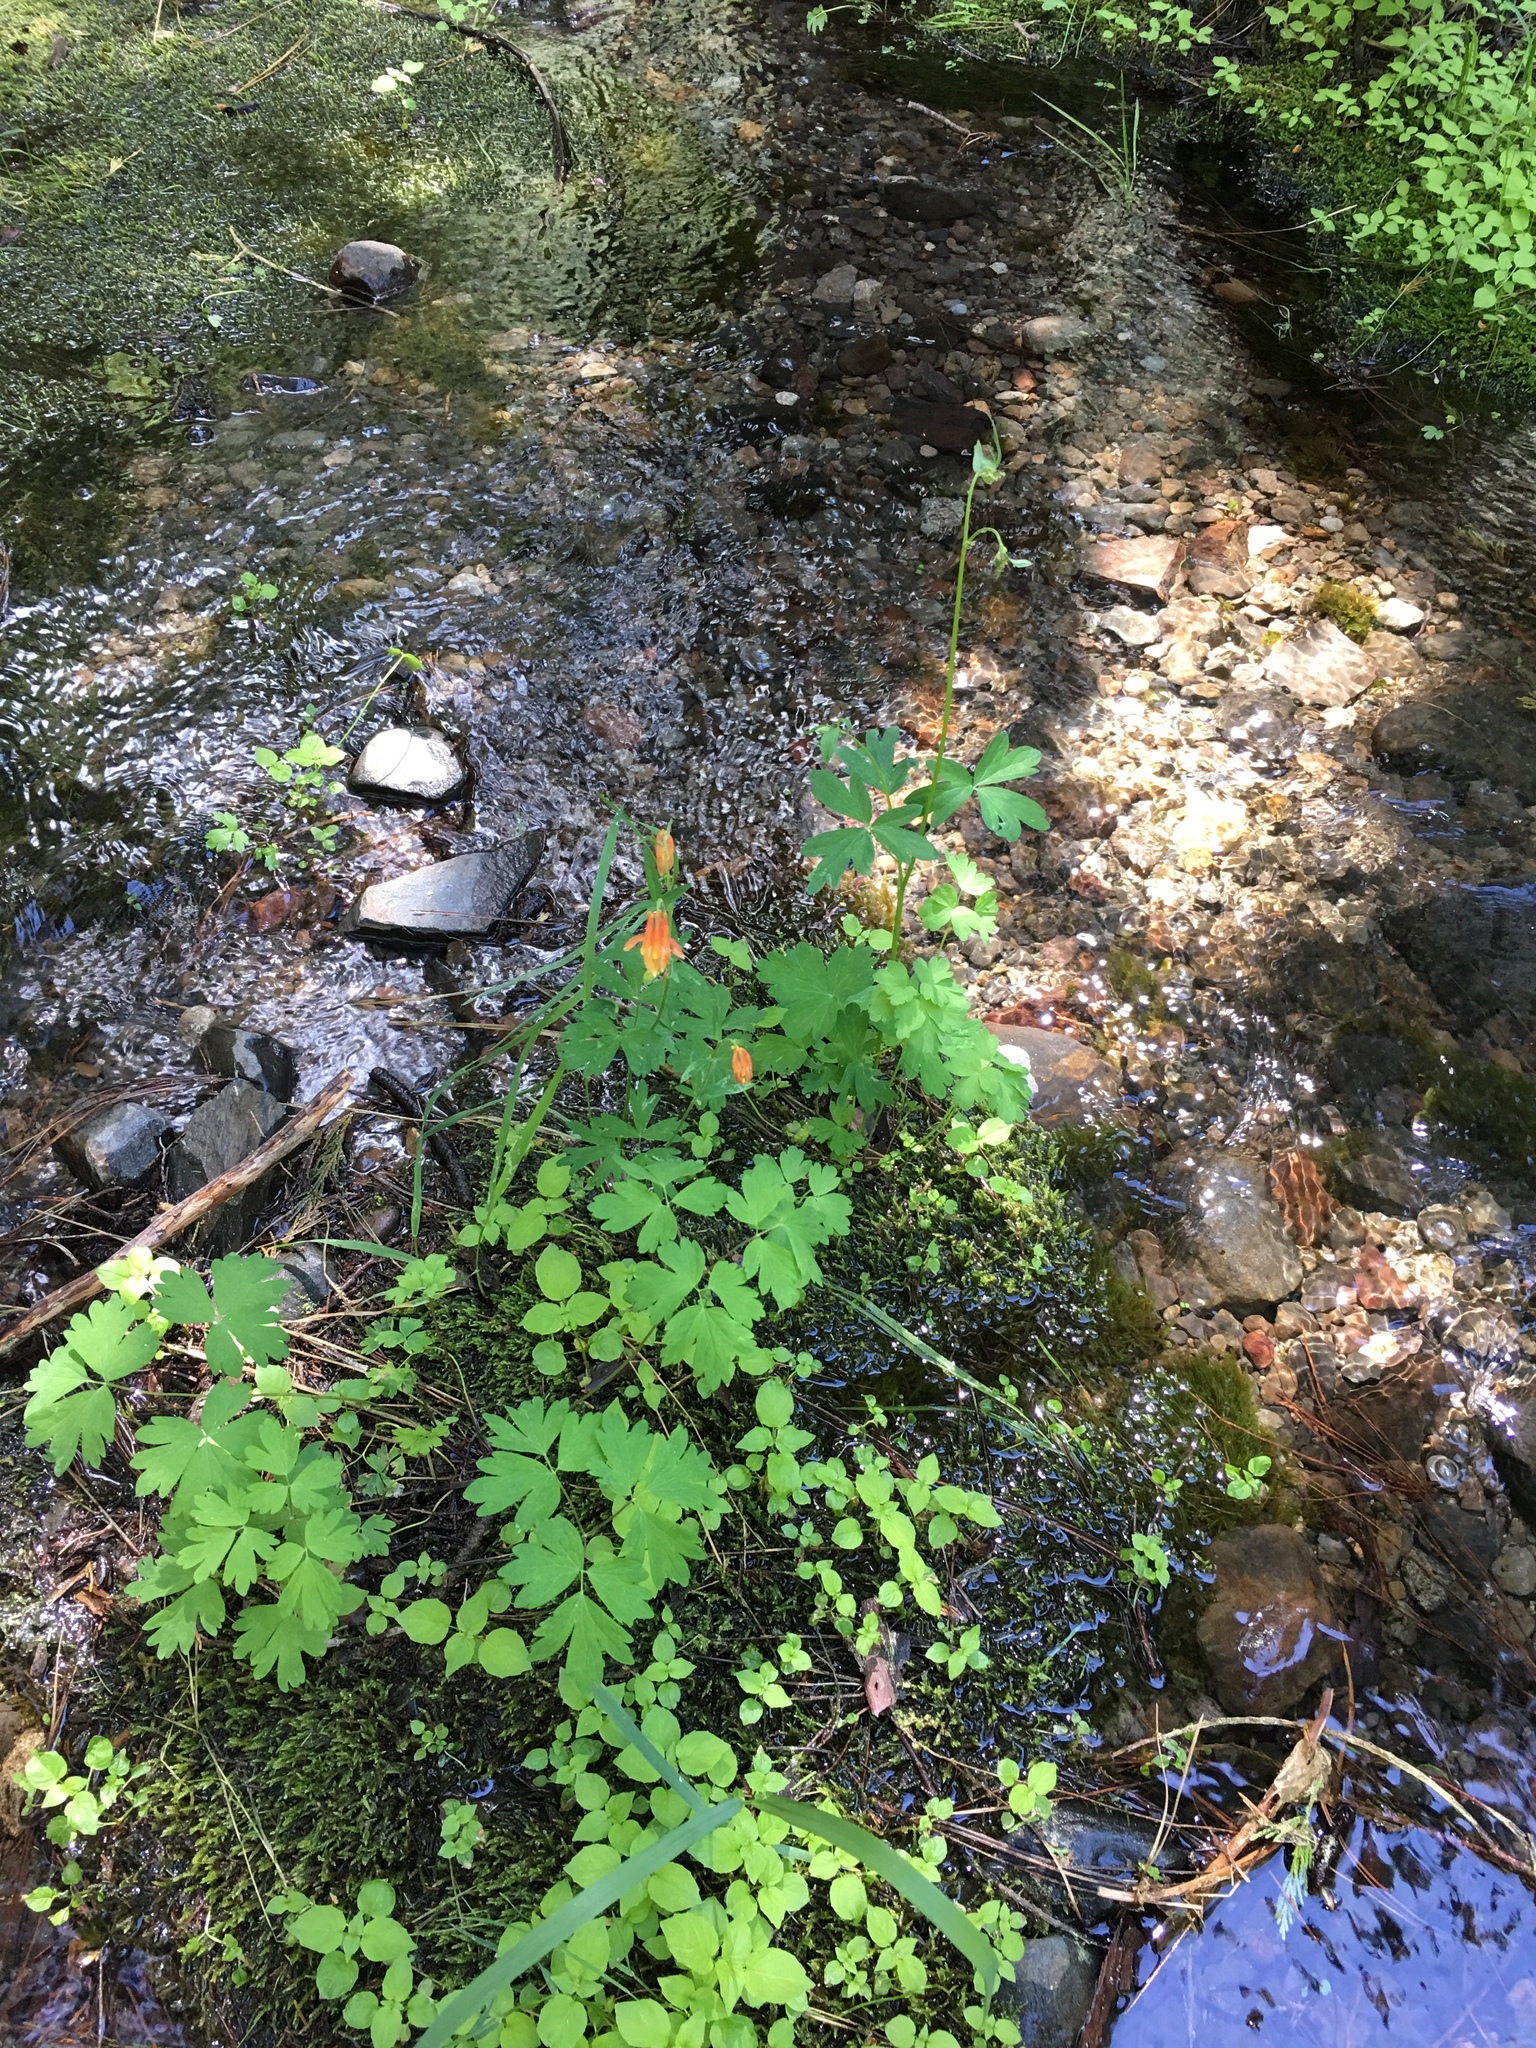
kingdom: Plantae
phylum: Tracheophyta
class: Magnoliopsida
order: Ranunculales
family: Ranunculaceae
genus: Aquilegia
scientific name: Aquilegia formosa
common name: Sitka columbine
